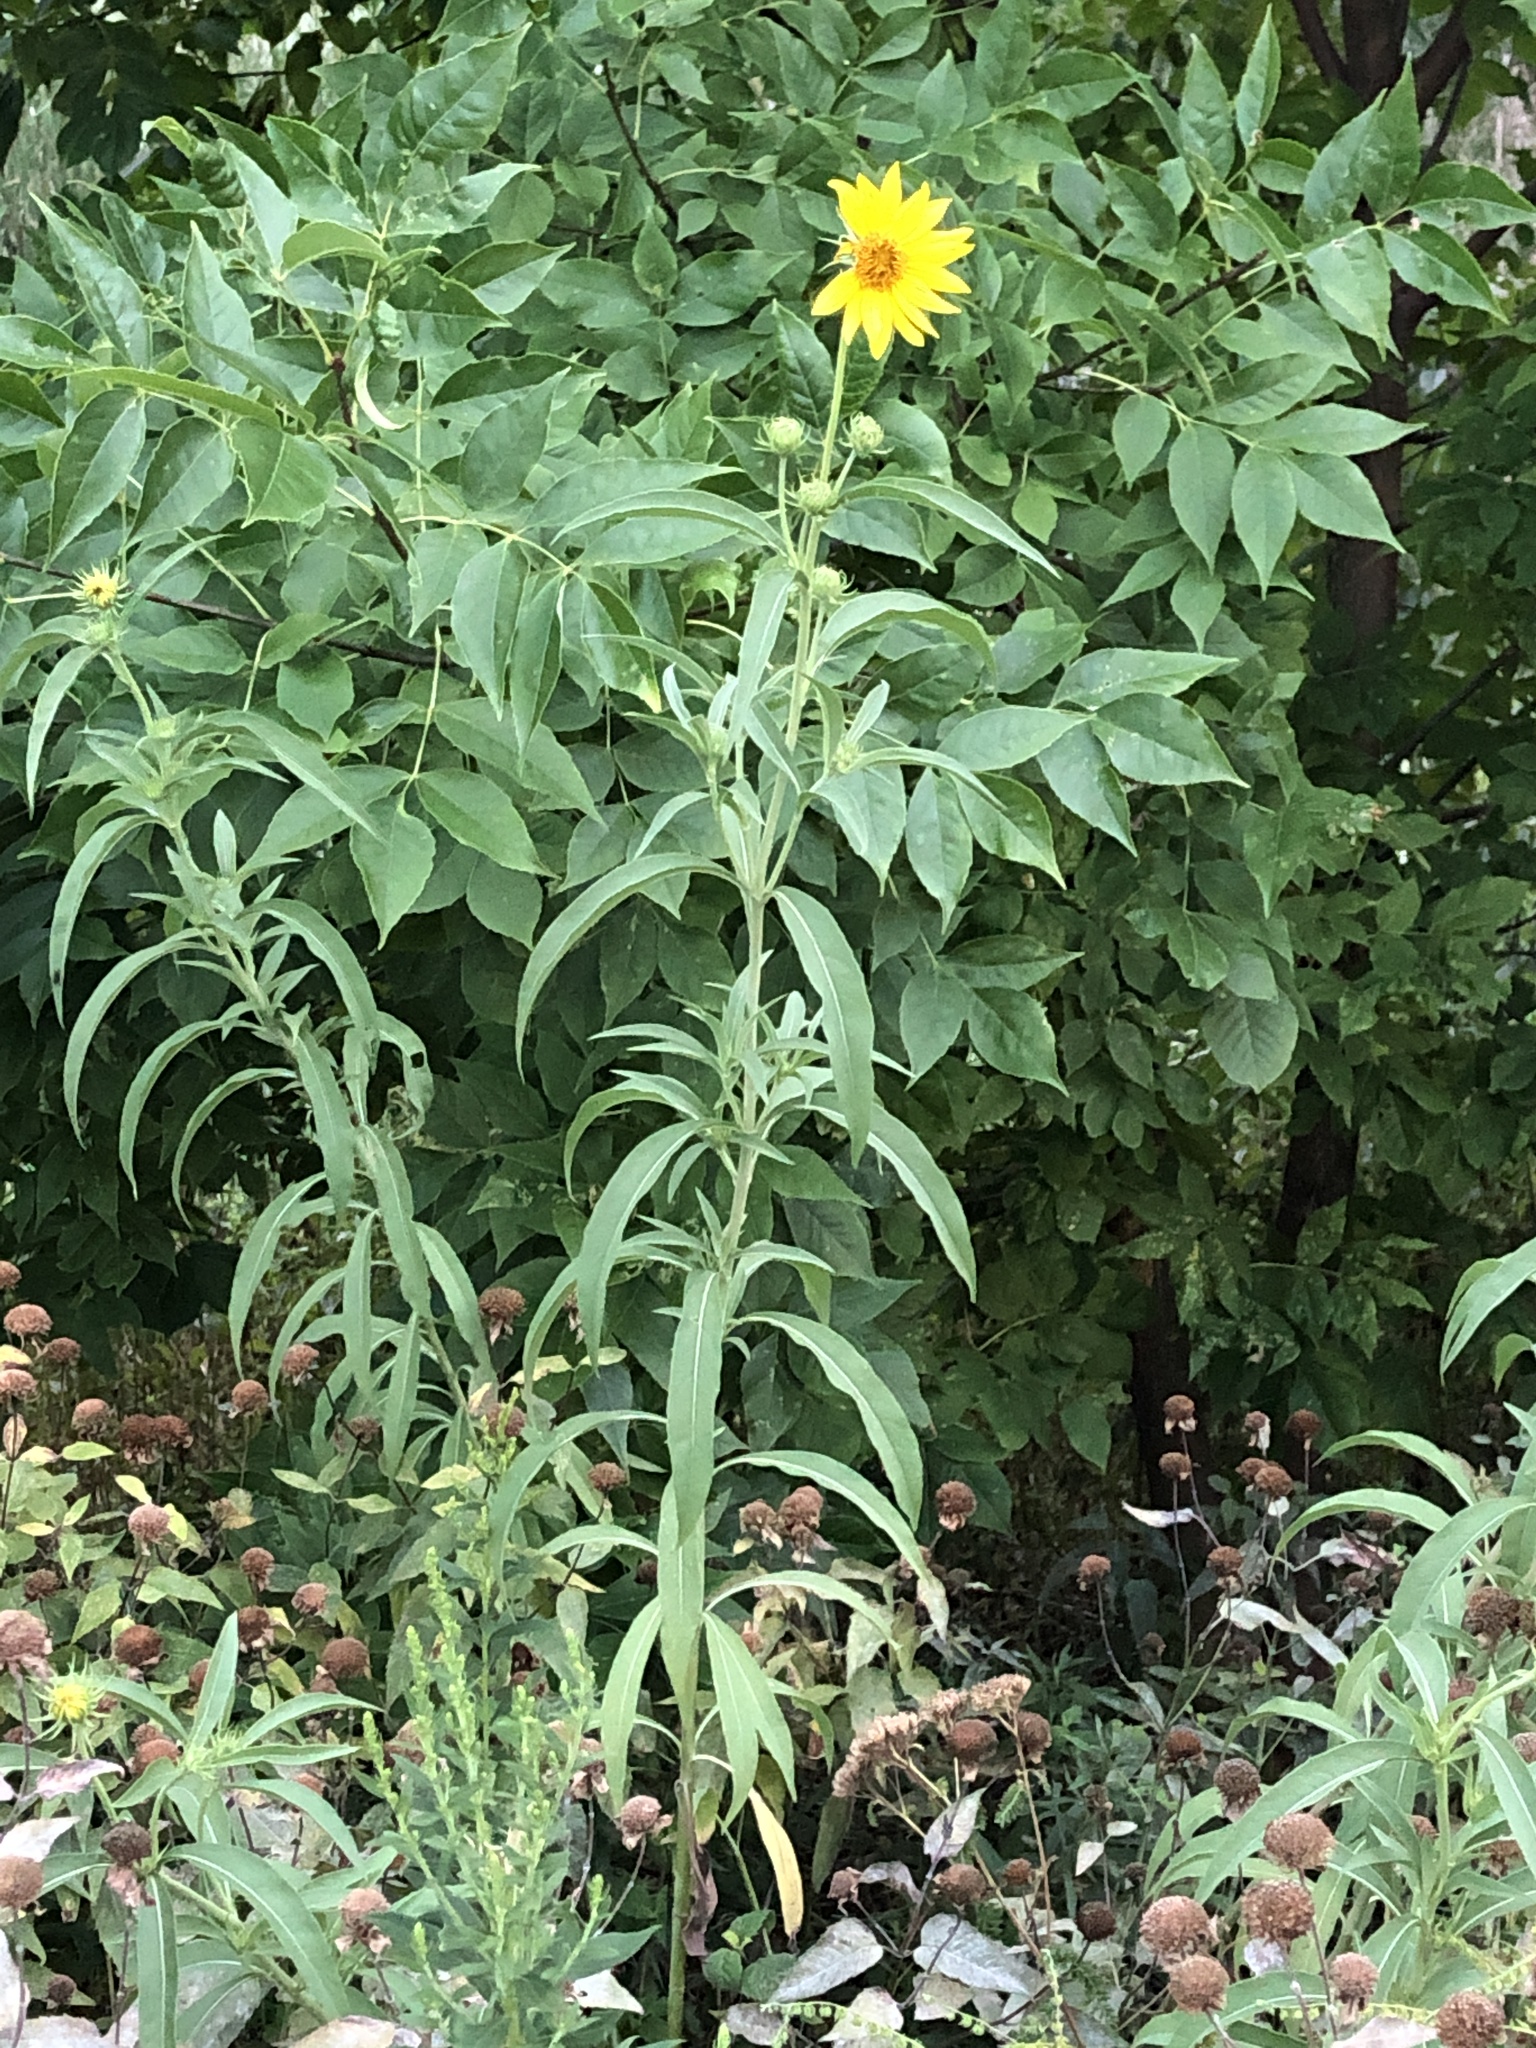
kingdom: Plantae
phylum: Tracheophyta
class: Magnoliopsida
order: Asterales
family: Asteraceae
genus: Helianthus
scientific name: Helianthus maximiliani
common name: Maximilian's sunflower
